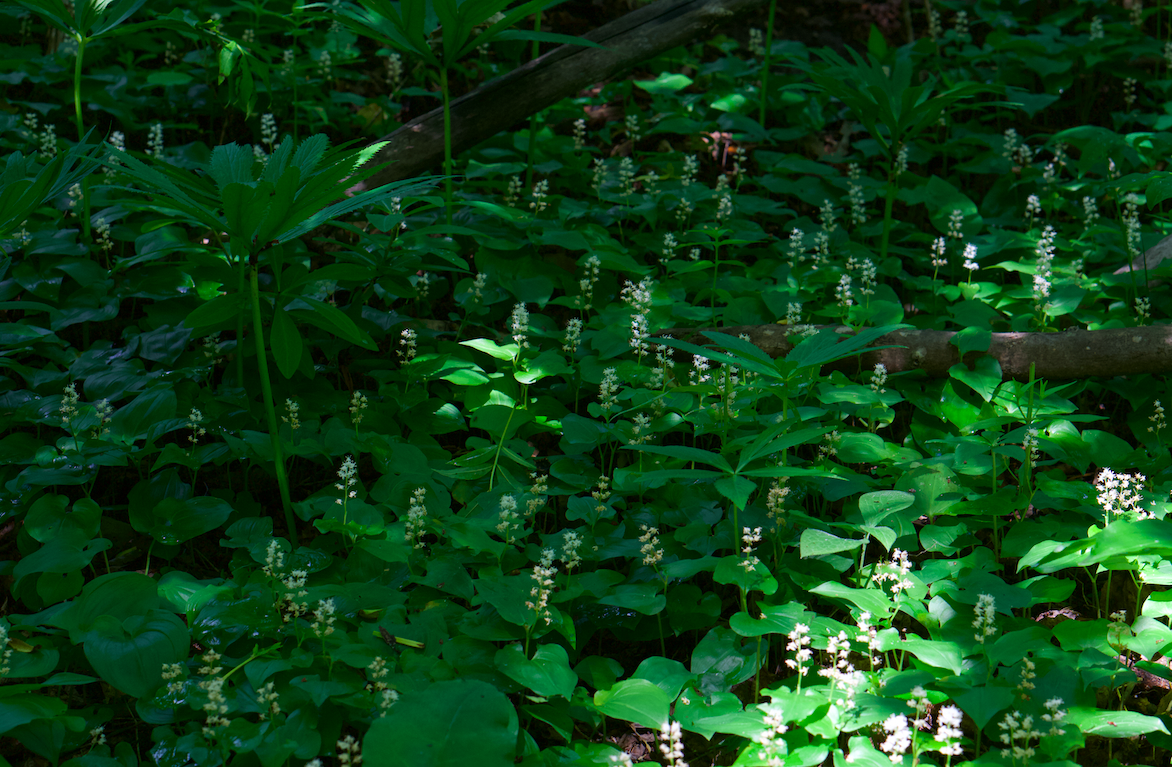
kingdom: Plantae
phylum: Tracheophyta
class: Liliopsida
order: Asparagales
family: Asparagaceae
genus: Maianthemum
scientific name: Maianthemum bifolium
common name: May lily
